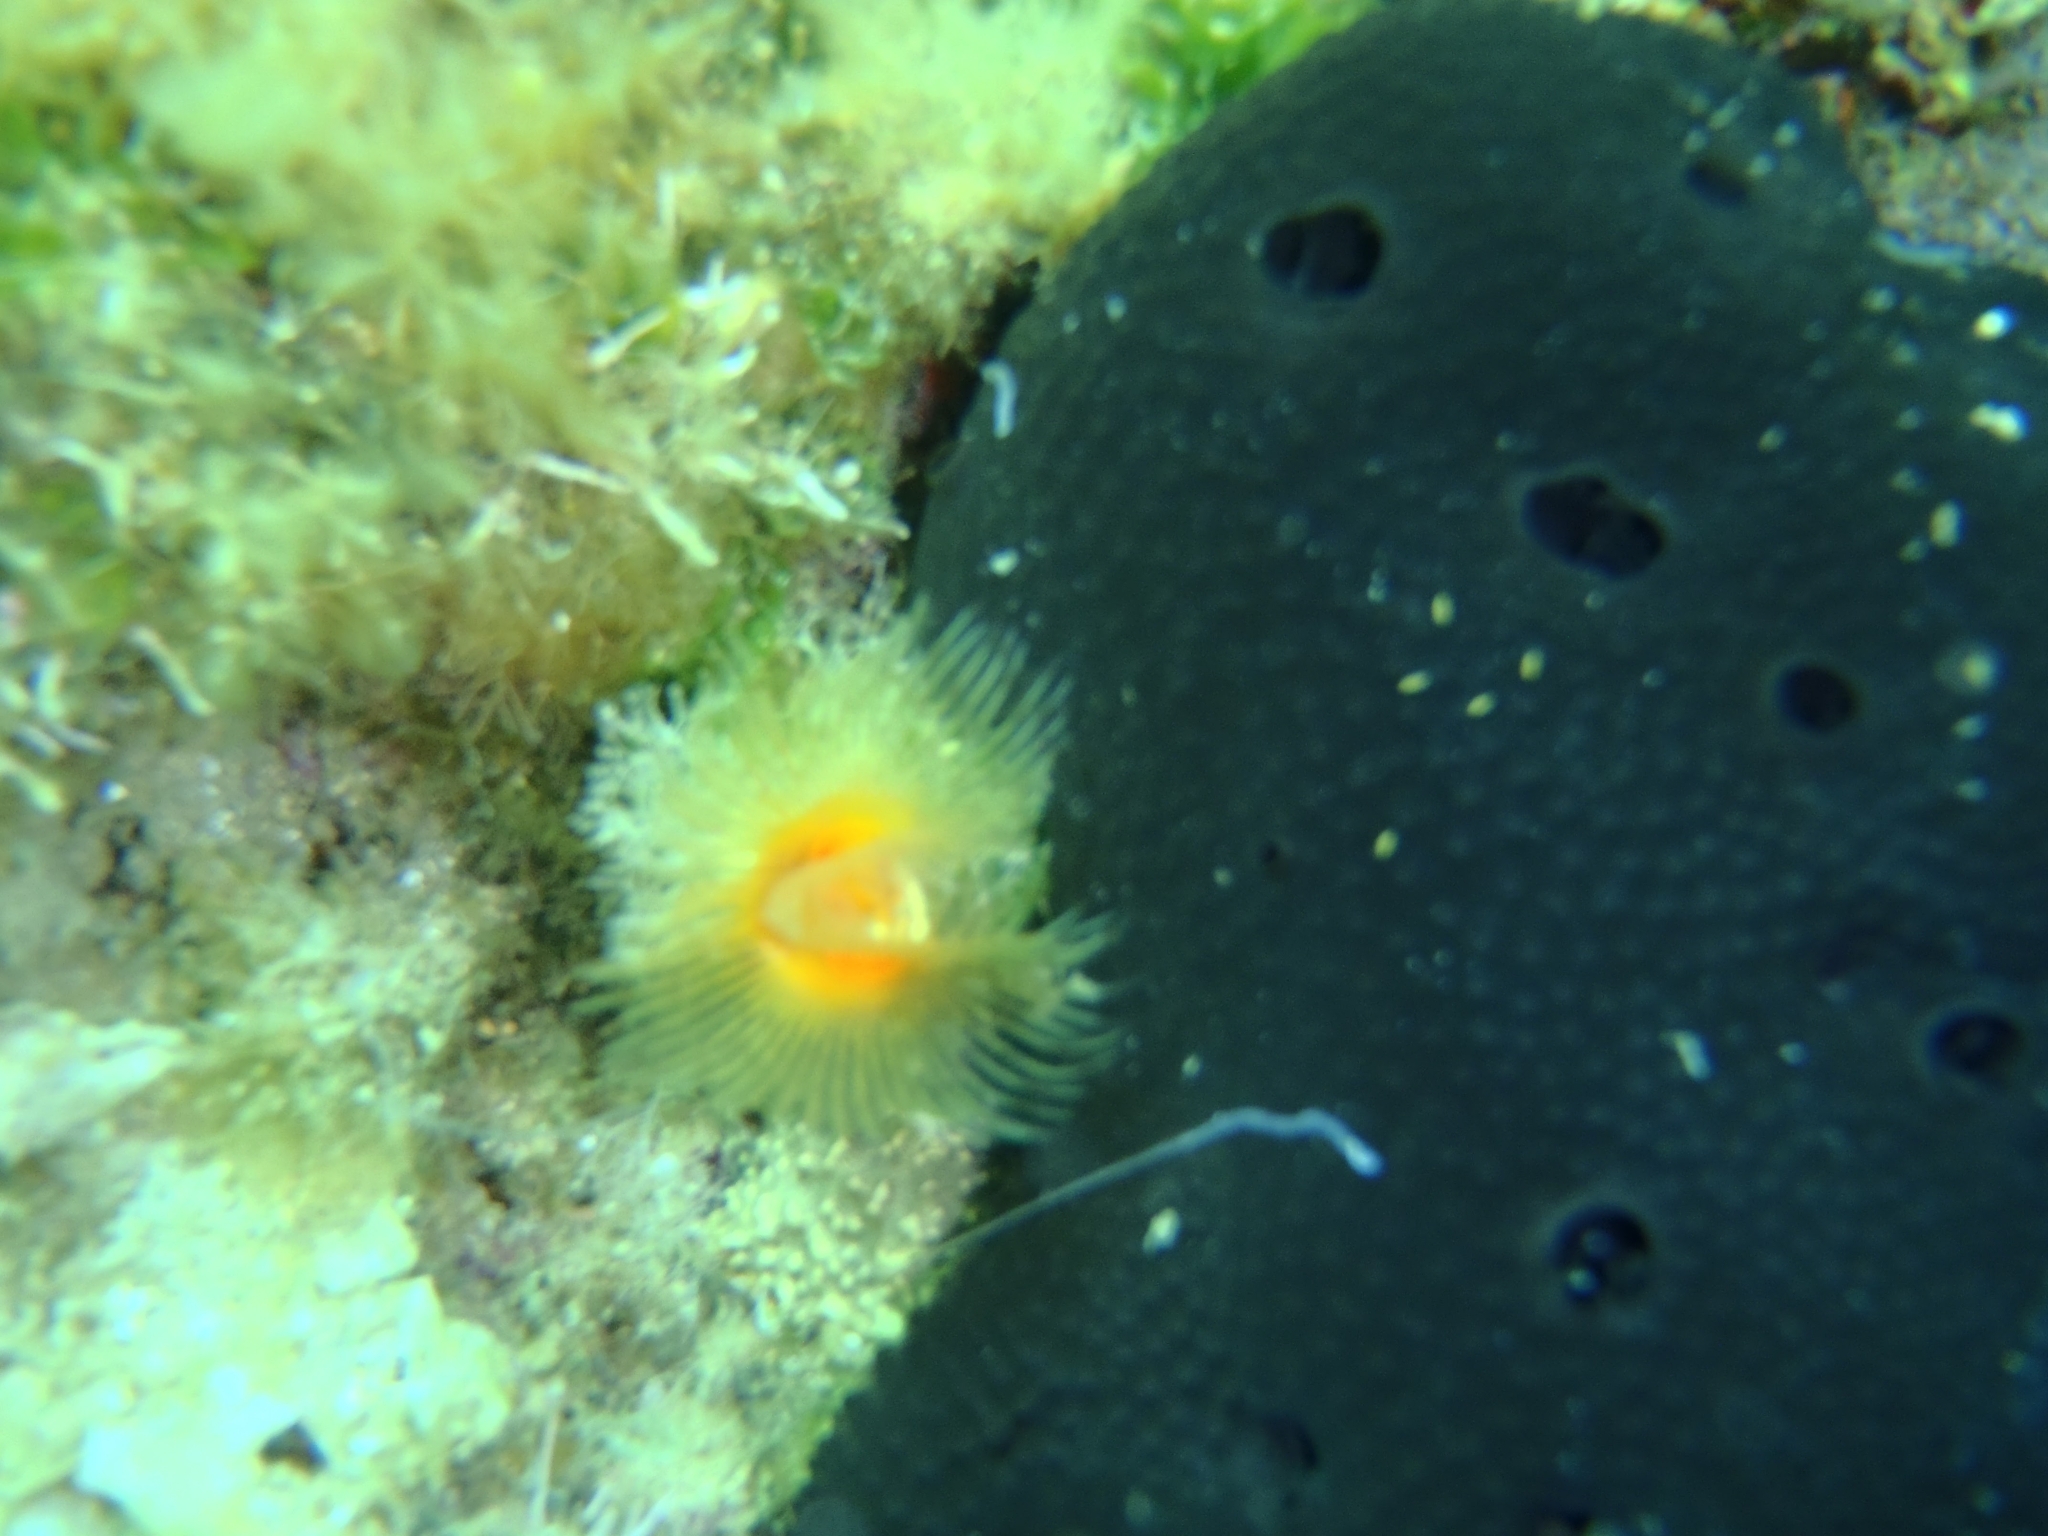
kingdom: Animalia
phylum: Annelida
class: Polychaeta
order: Sabellida
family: Serpulidae
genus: Protula
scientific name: Protula tubularia
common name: Red-spotted horseshoe
